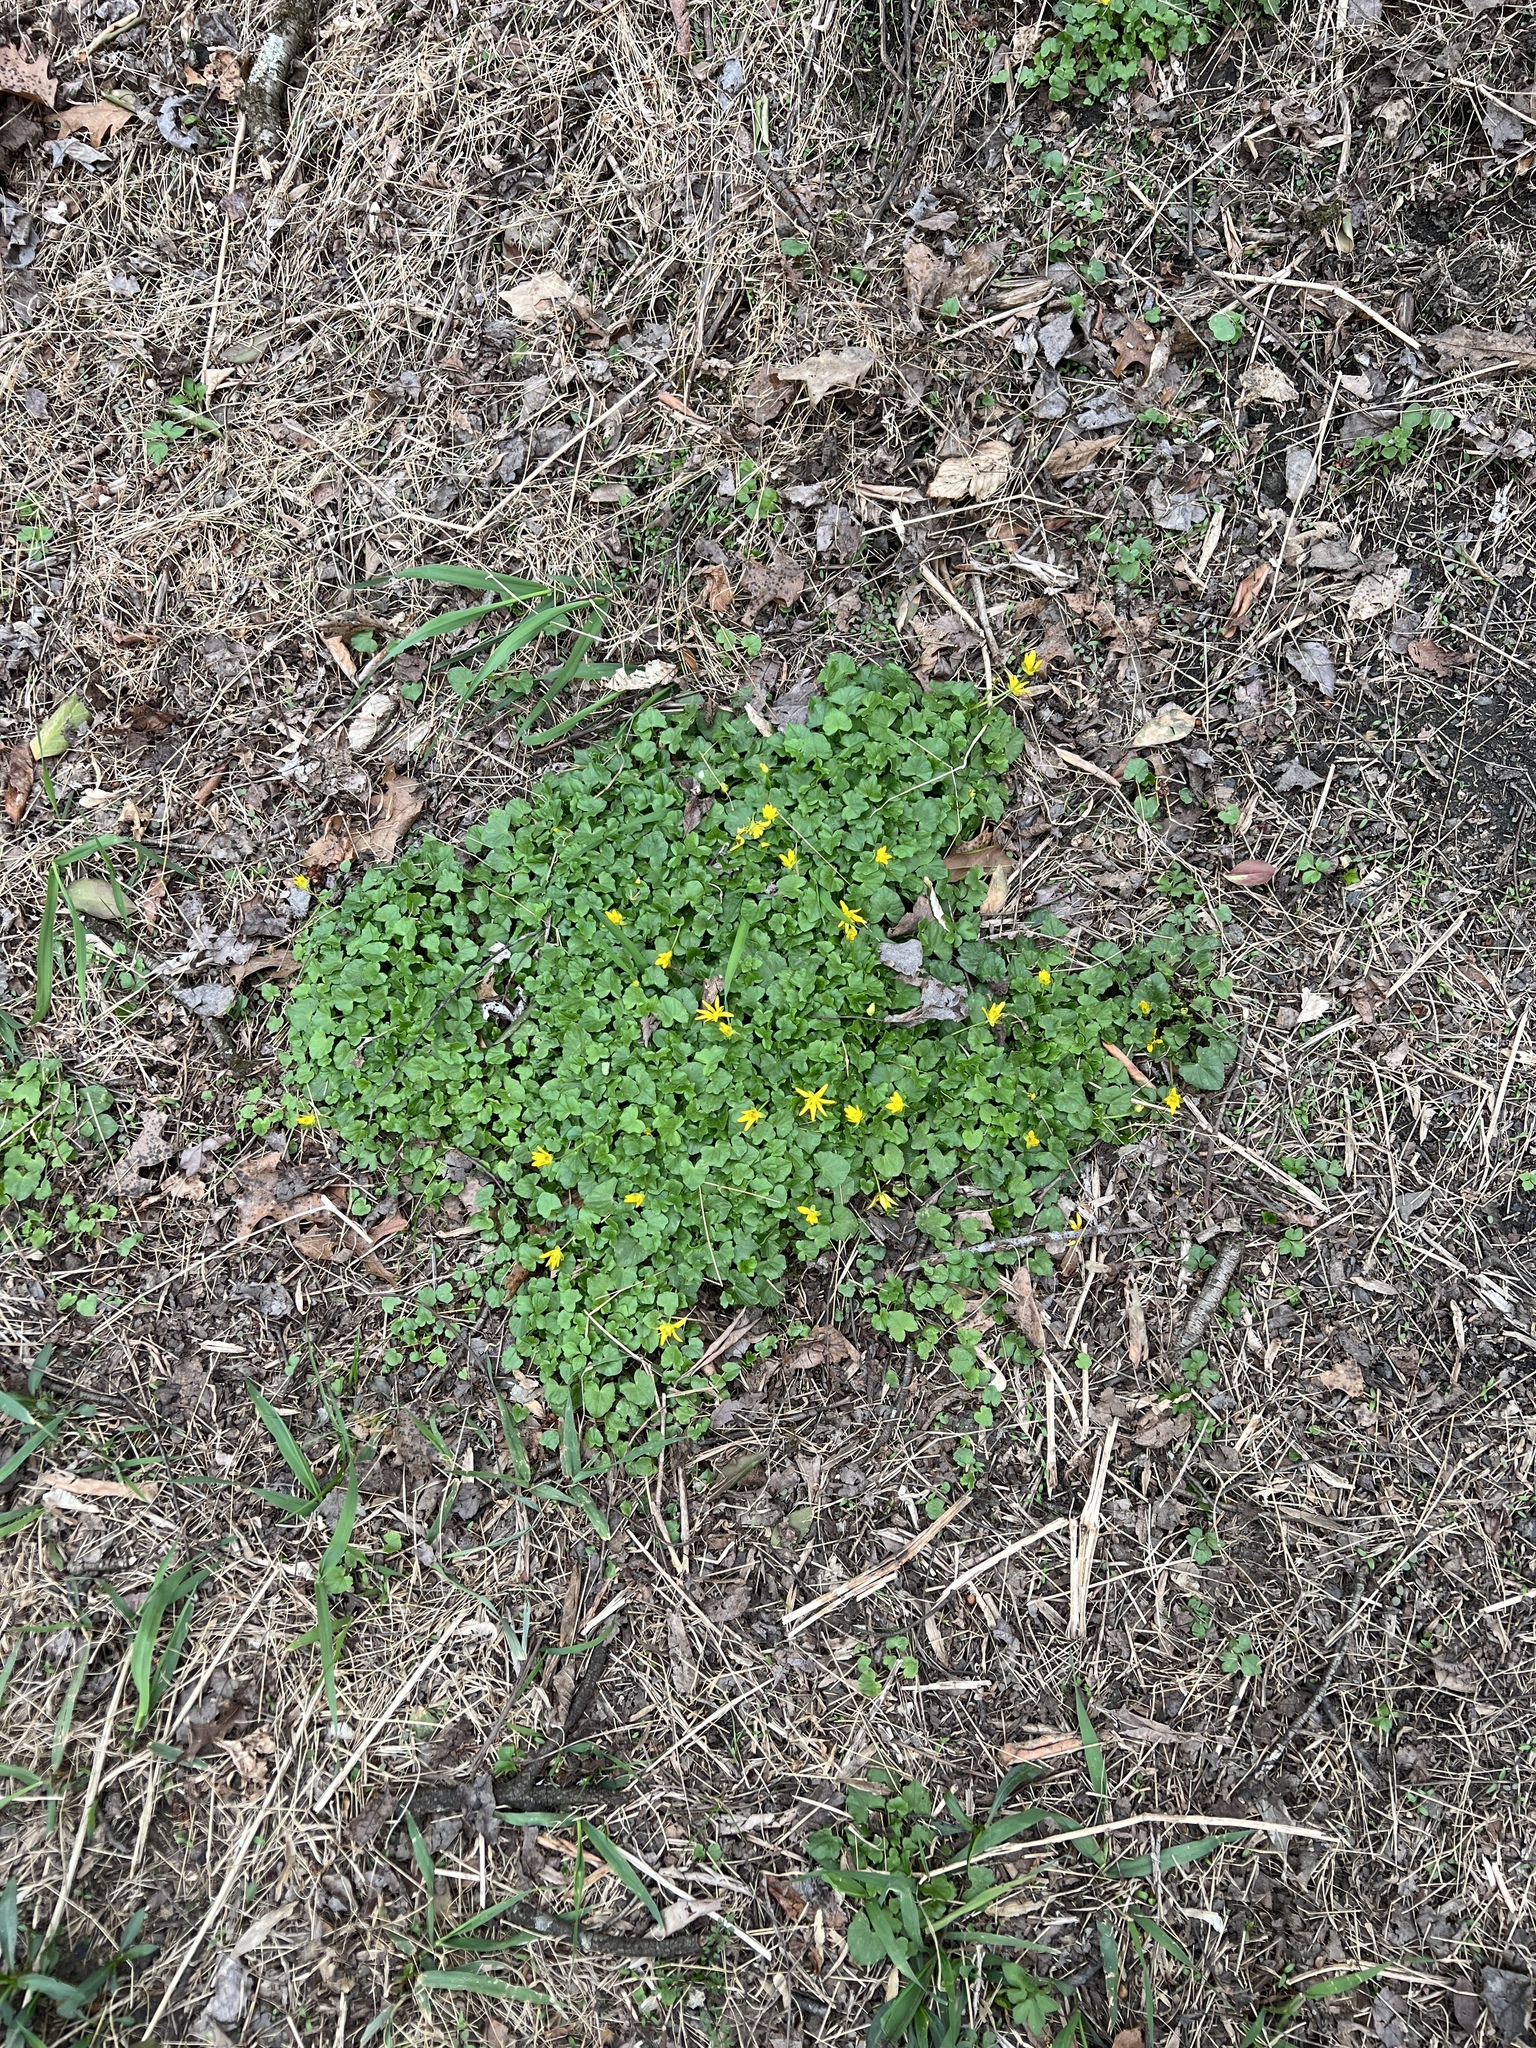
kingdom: Plantae
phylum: Tracheophyta
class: Magnoliopsida
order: Ranunculales
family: Ranunculaceae
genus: Ficaria
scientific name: Ficaria verna
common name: Lesser celandine
